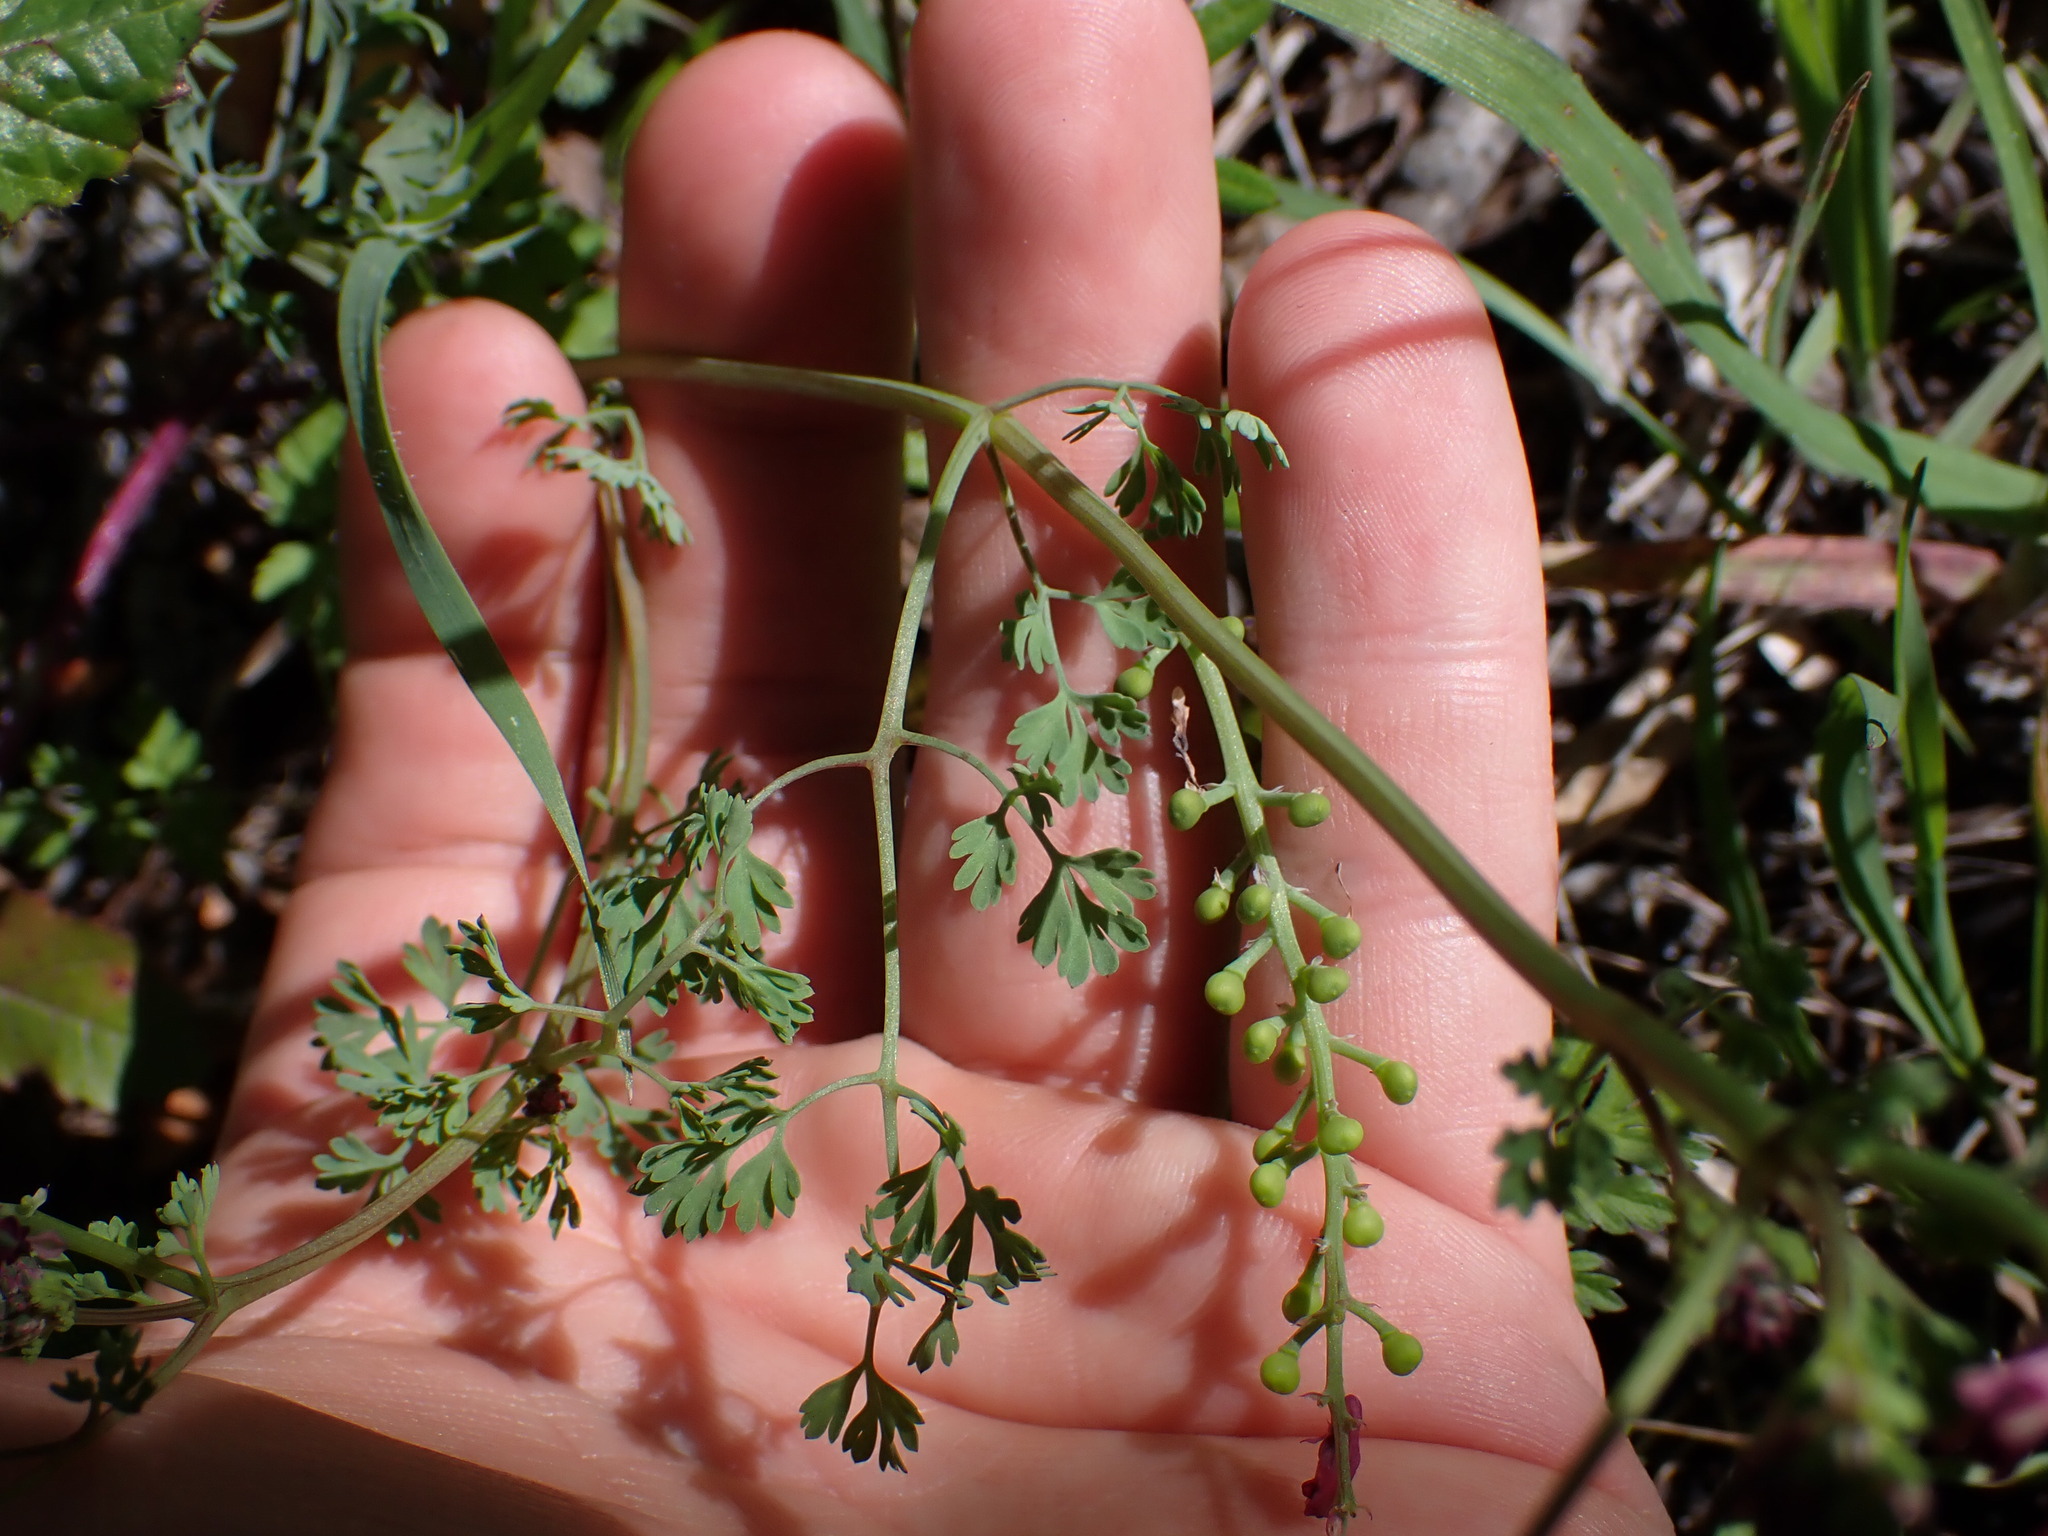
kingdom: Plantae
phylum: Tracheophyta
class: Magnoliopsida
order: Ranunculales
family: Papaveraceae
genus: Fumaria
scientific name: Fumaria officinalis
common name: Common fumitory
